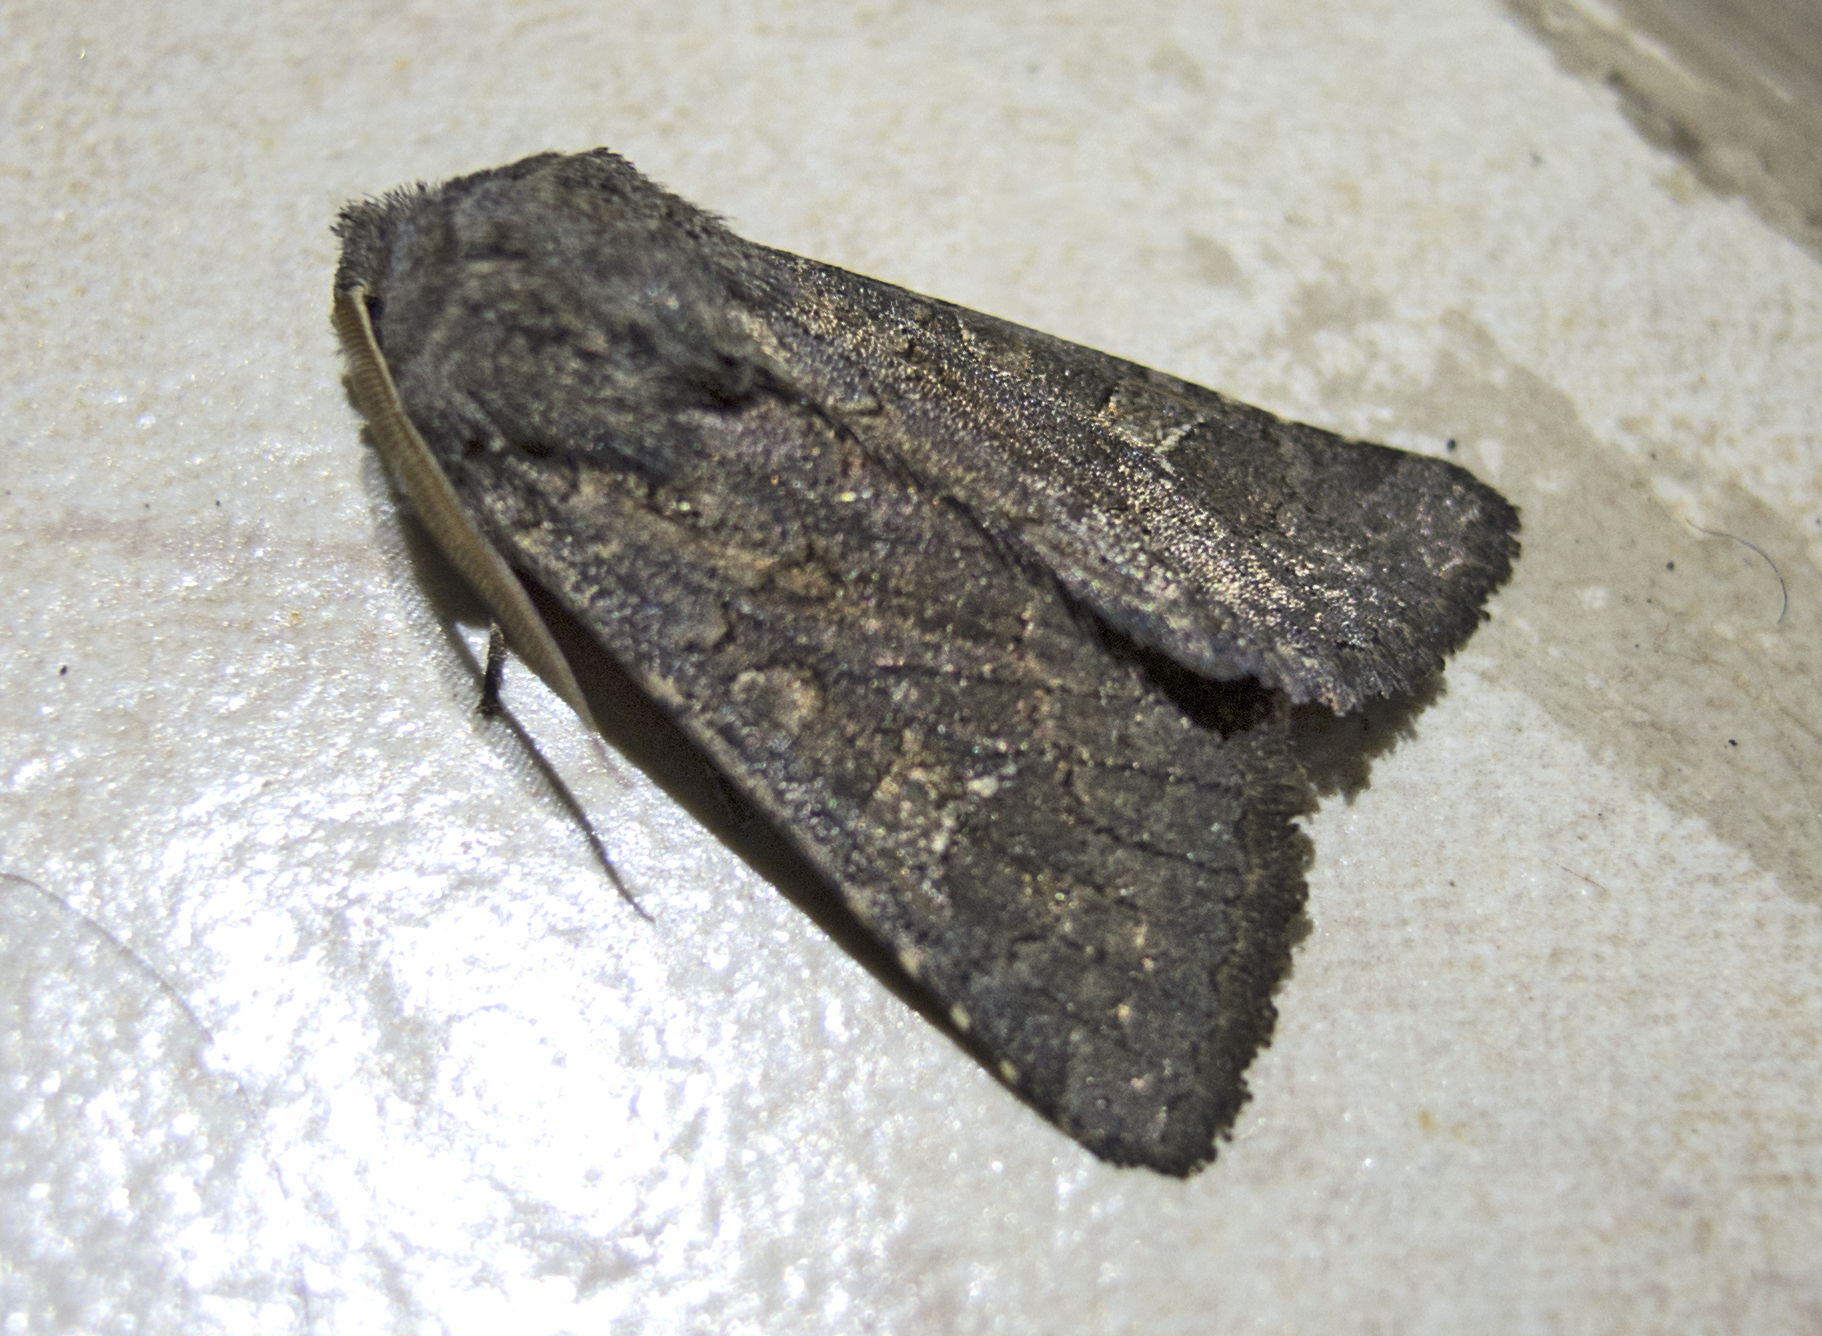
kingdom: Animalia
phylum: Arthropoda
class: Insecta
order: Lepidoptera
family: Noctuidae
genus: Aporophyla
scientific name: Aporophyla lutulenta
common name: Deep-brown dart
